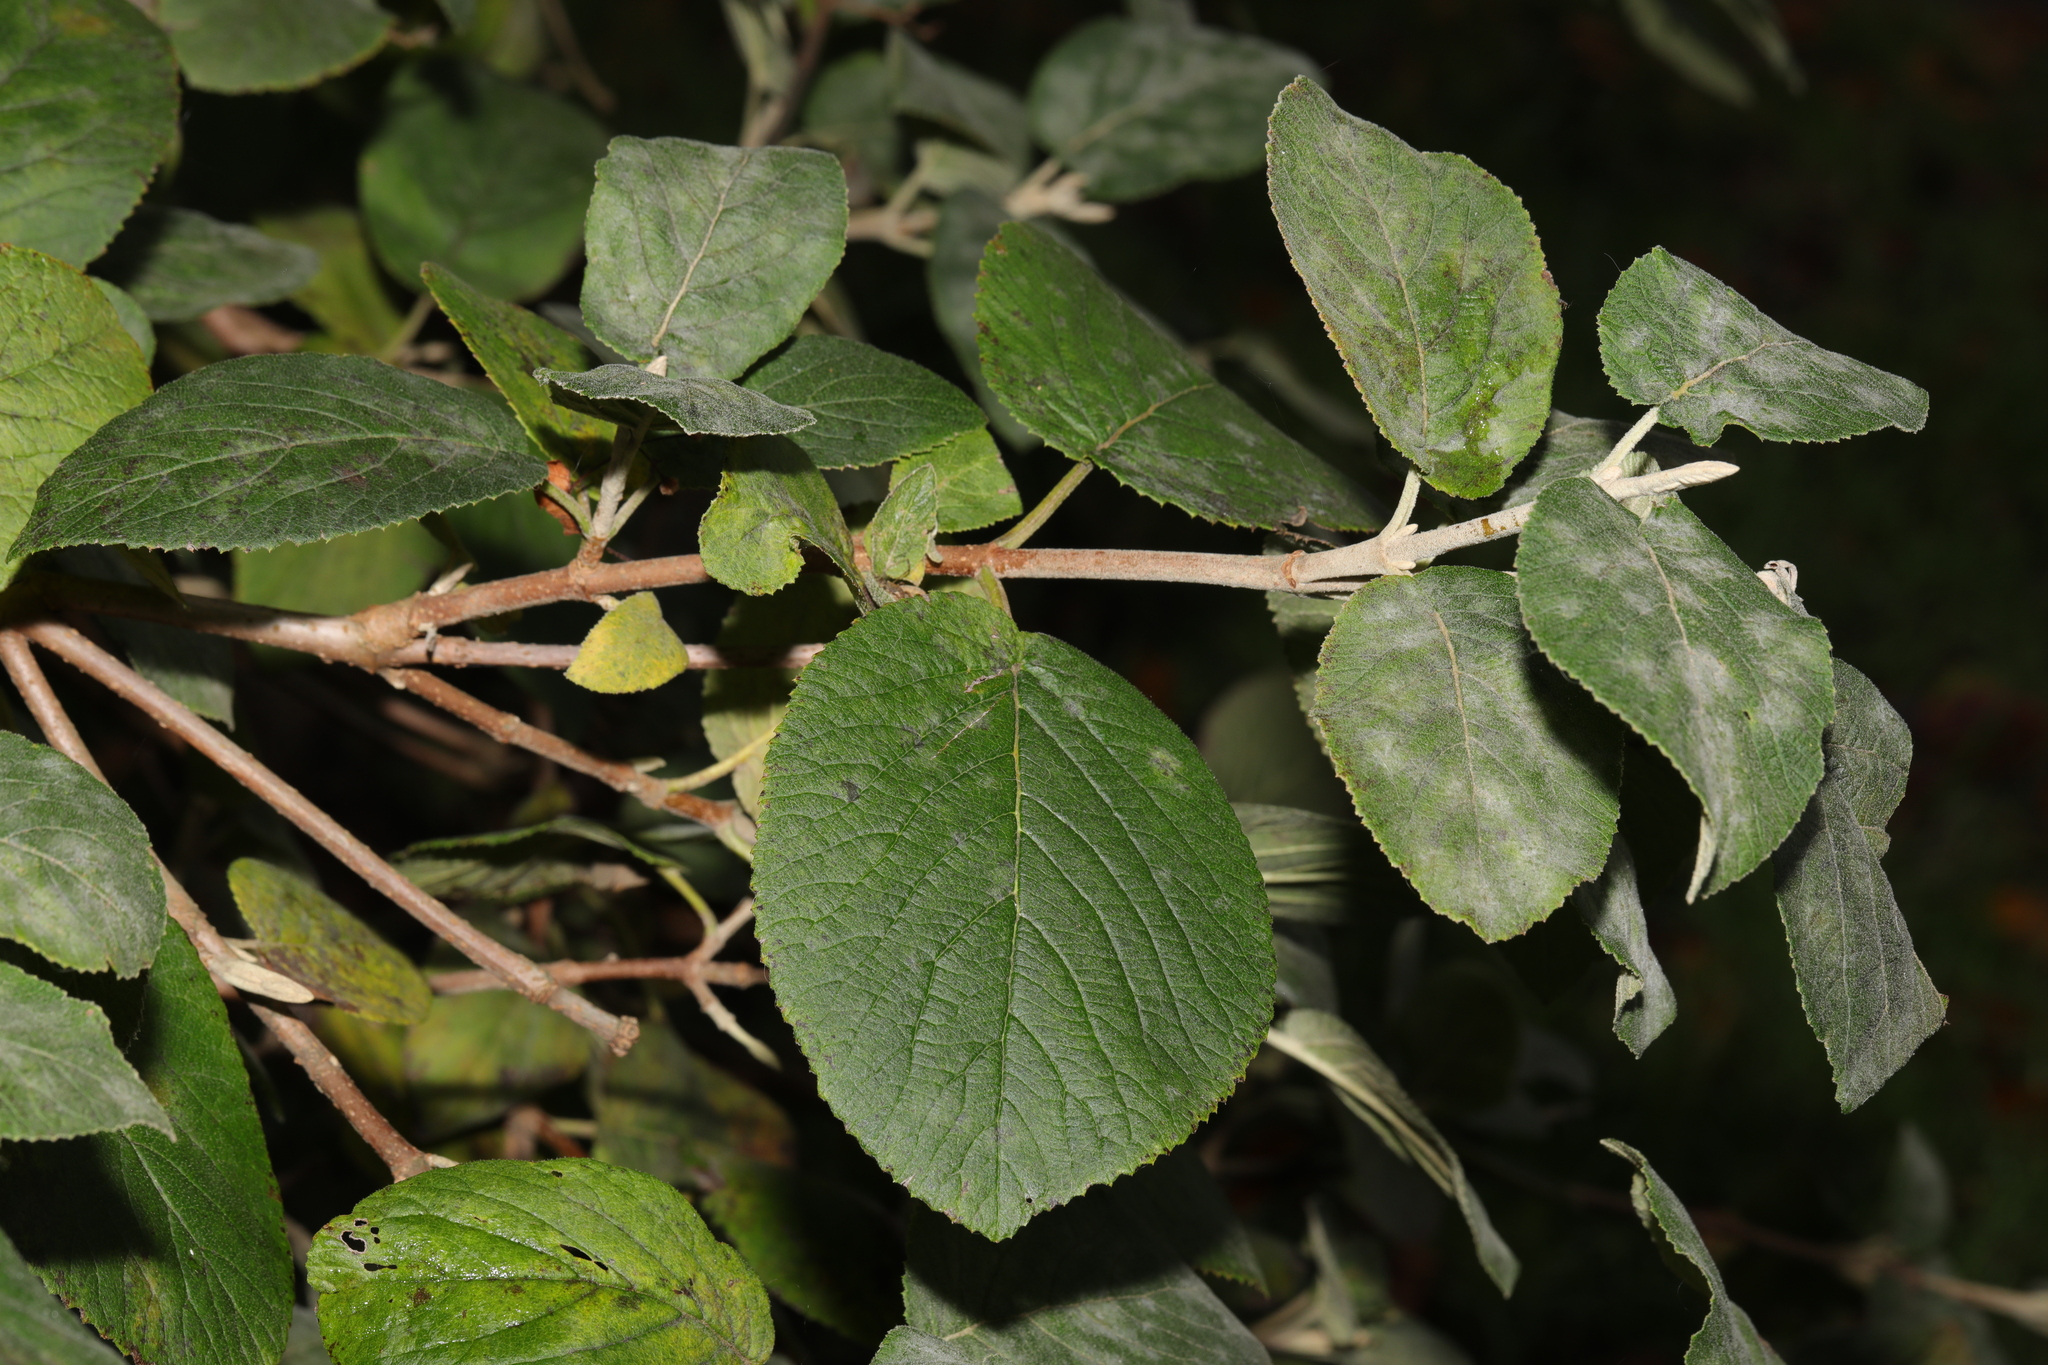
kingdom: Plantae
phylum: Tracheophyta
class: Magnoliopsida
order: Dipsacales
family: Viburnaceae
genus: Viburnum
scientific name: Viburnum lantana
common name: Wayfaring tree
